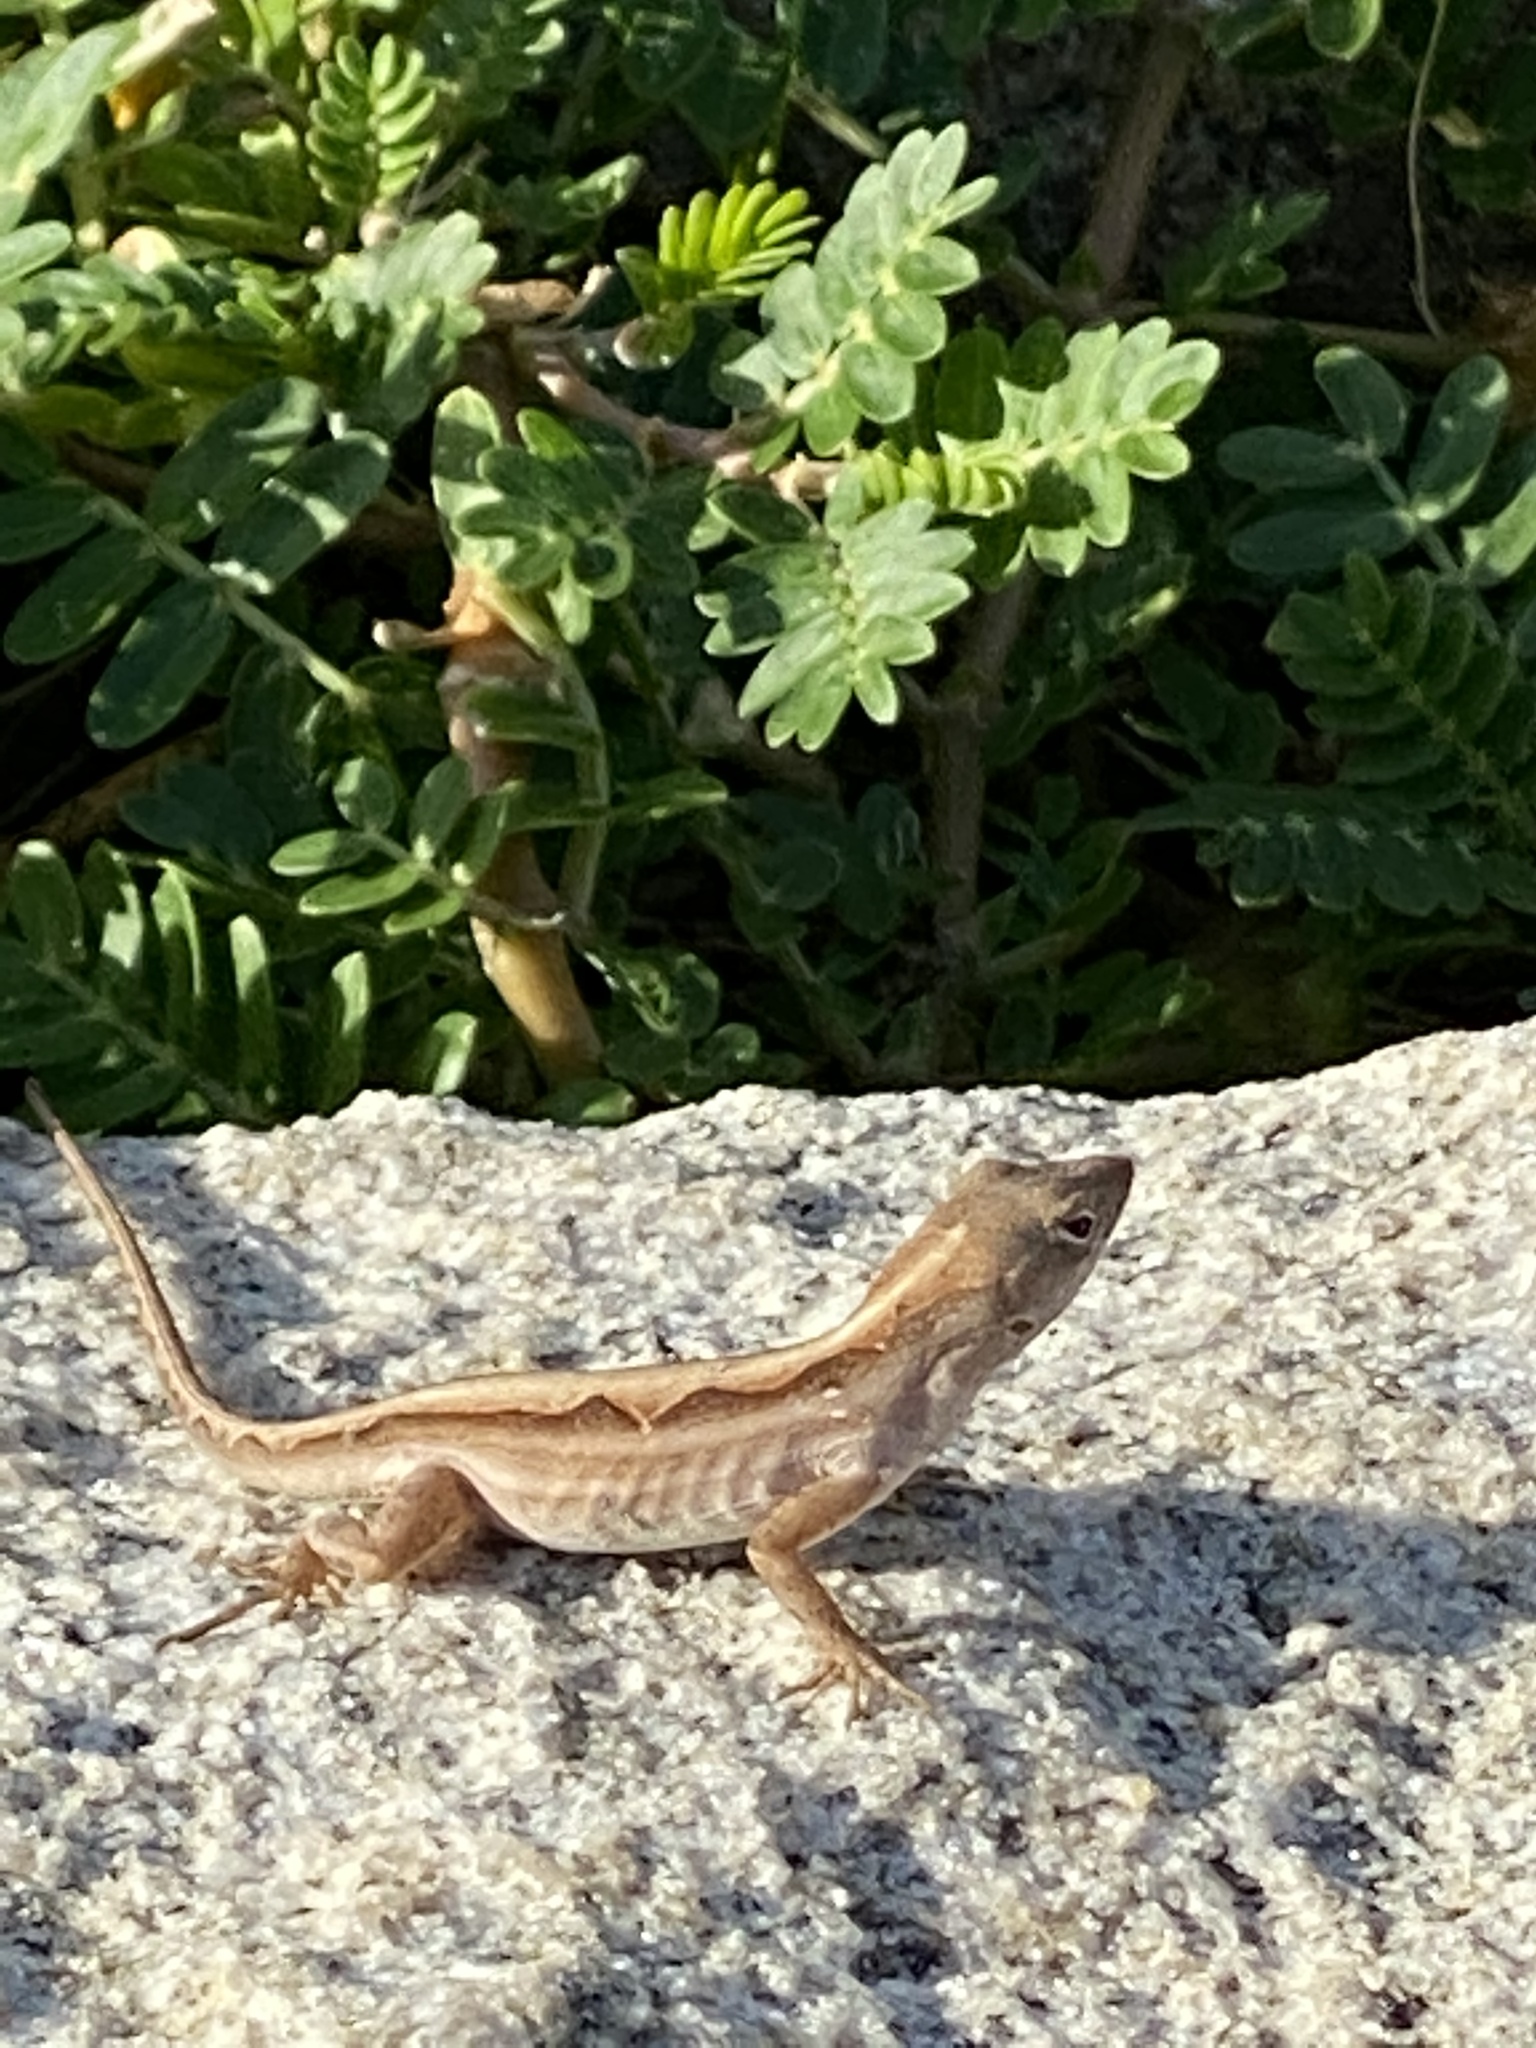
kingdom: Animalia
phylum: Chordata
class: Squamata
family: Dactyloidae
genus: Anolis
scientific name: Anolis sagrei
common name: Brown anole
